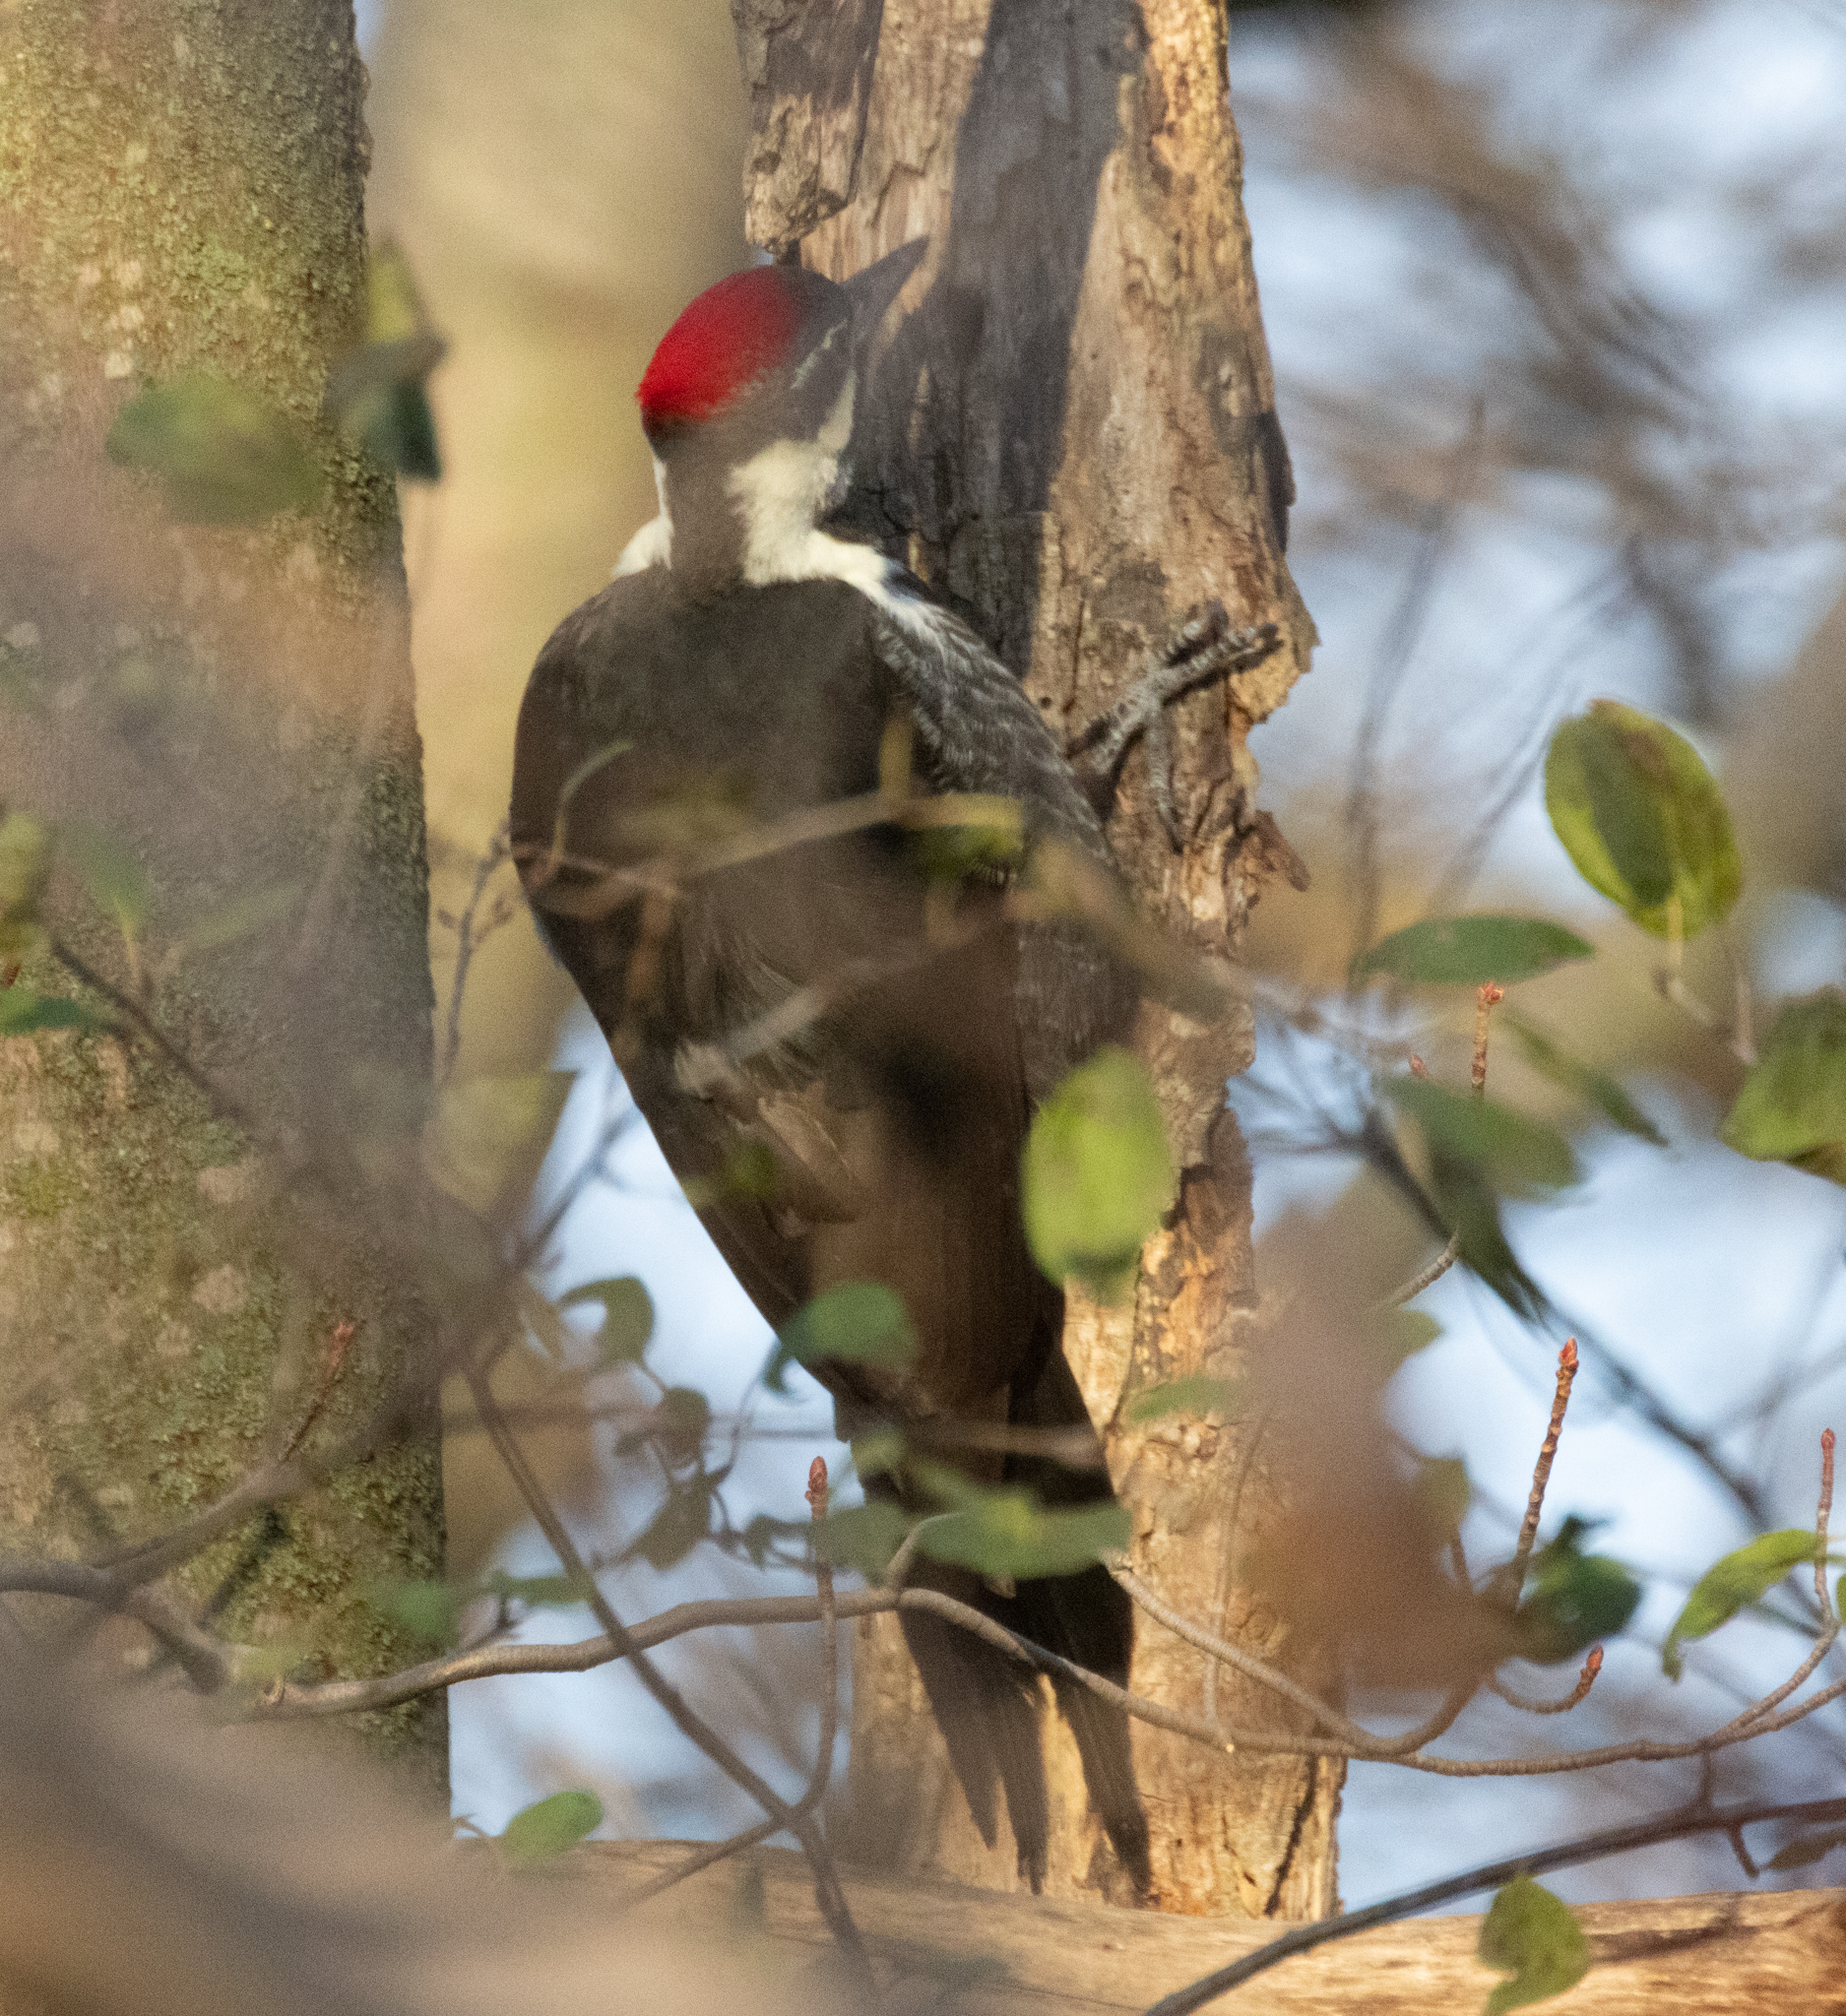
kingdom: Animalia
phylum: Chordata
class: Aves
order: Piciformes
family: Picidae
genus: Dryocopus
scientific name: Dryocopus pileatus
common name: Pileated woodpecker
